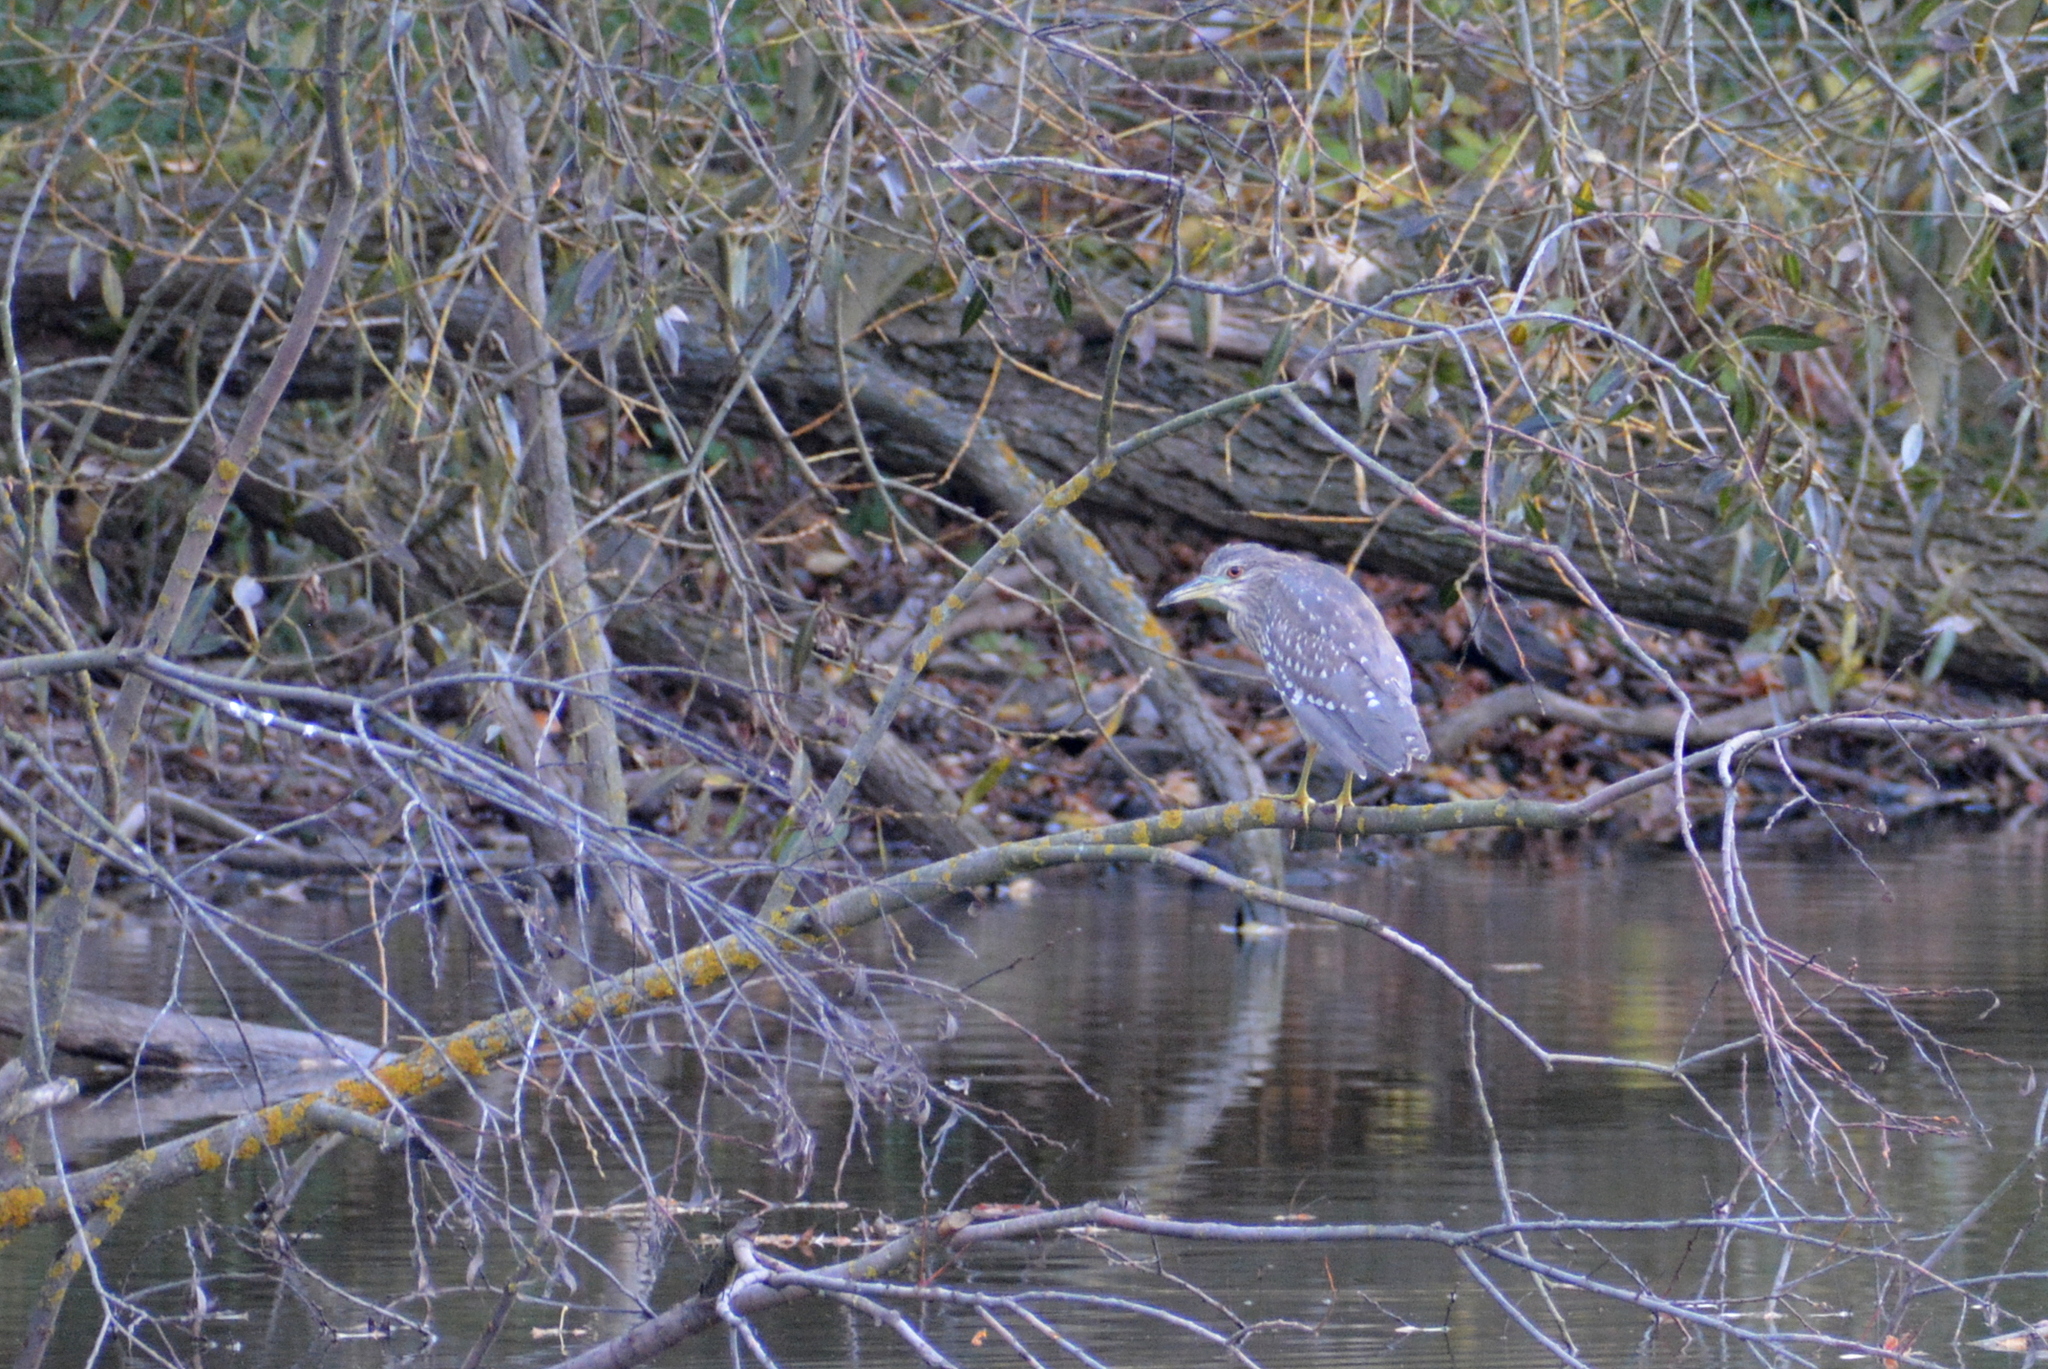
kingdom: Animalia
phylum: Chordata
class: Aves
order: Pelecaniformes
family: Ardeidae
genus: Nycticorax
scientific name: Nycticorax nycticorax
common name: Black-crowned night heron
